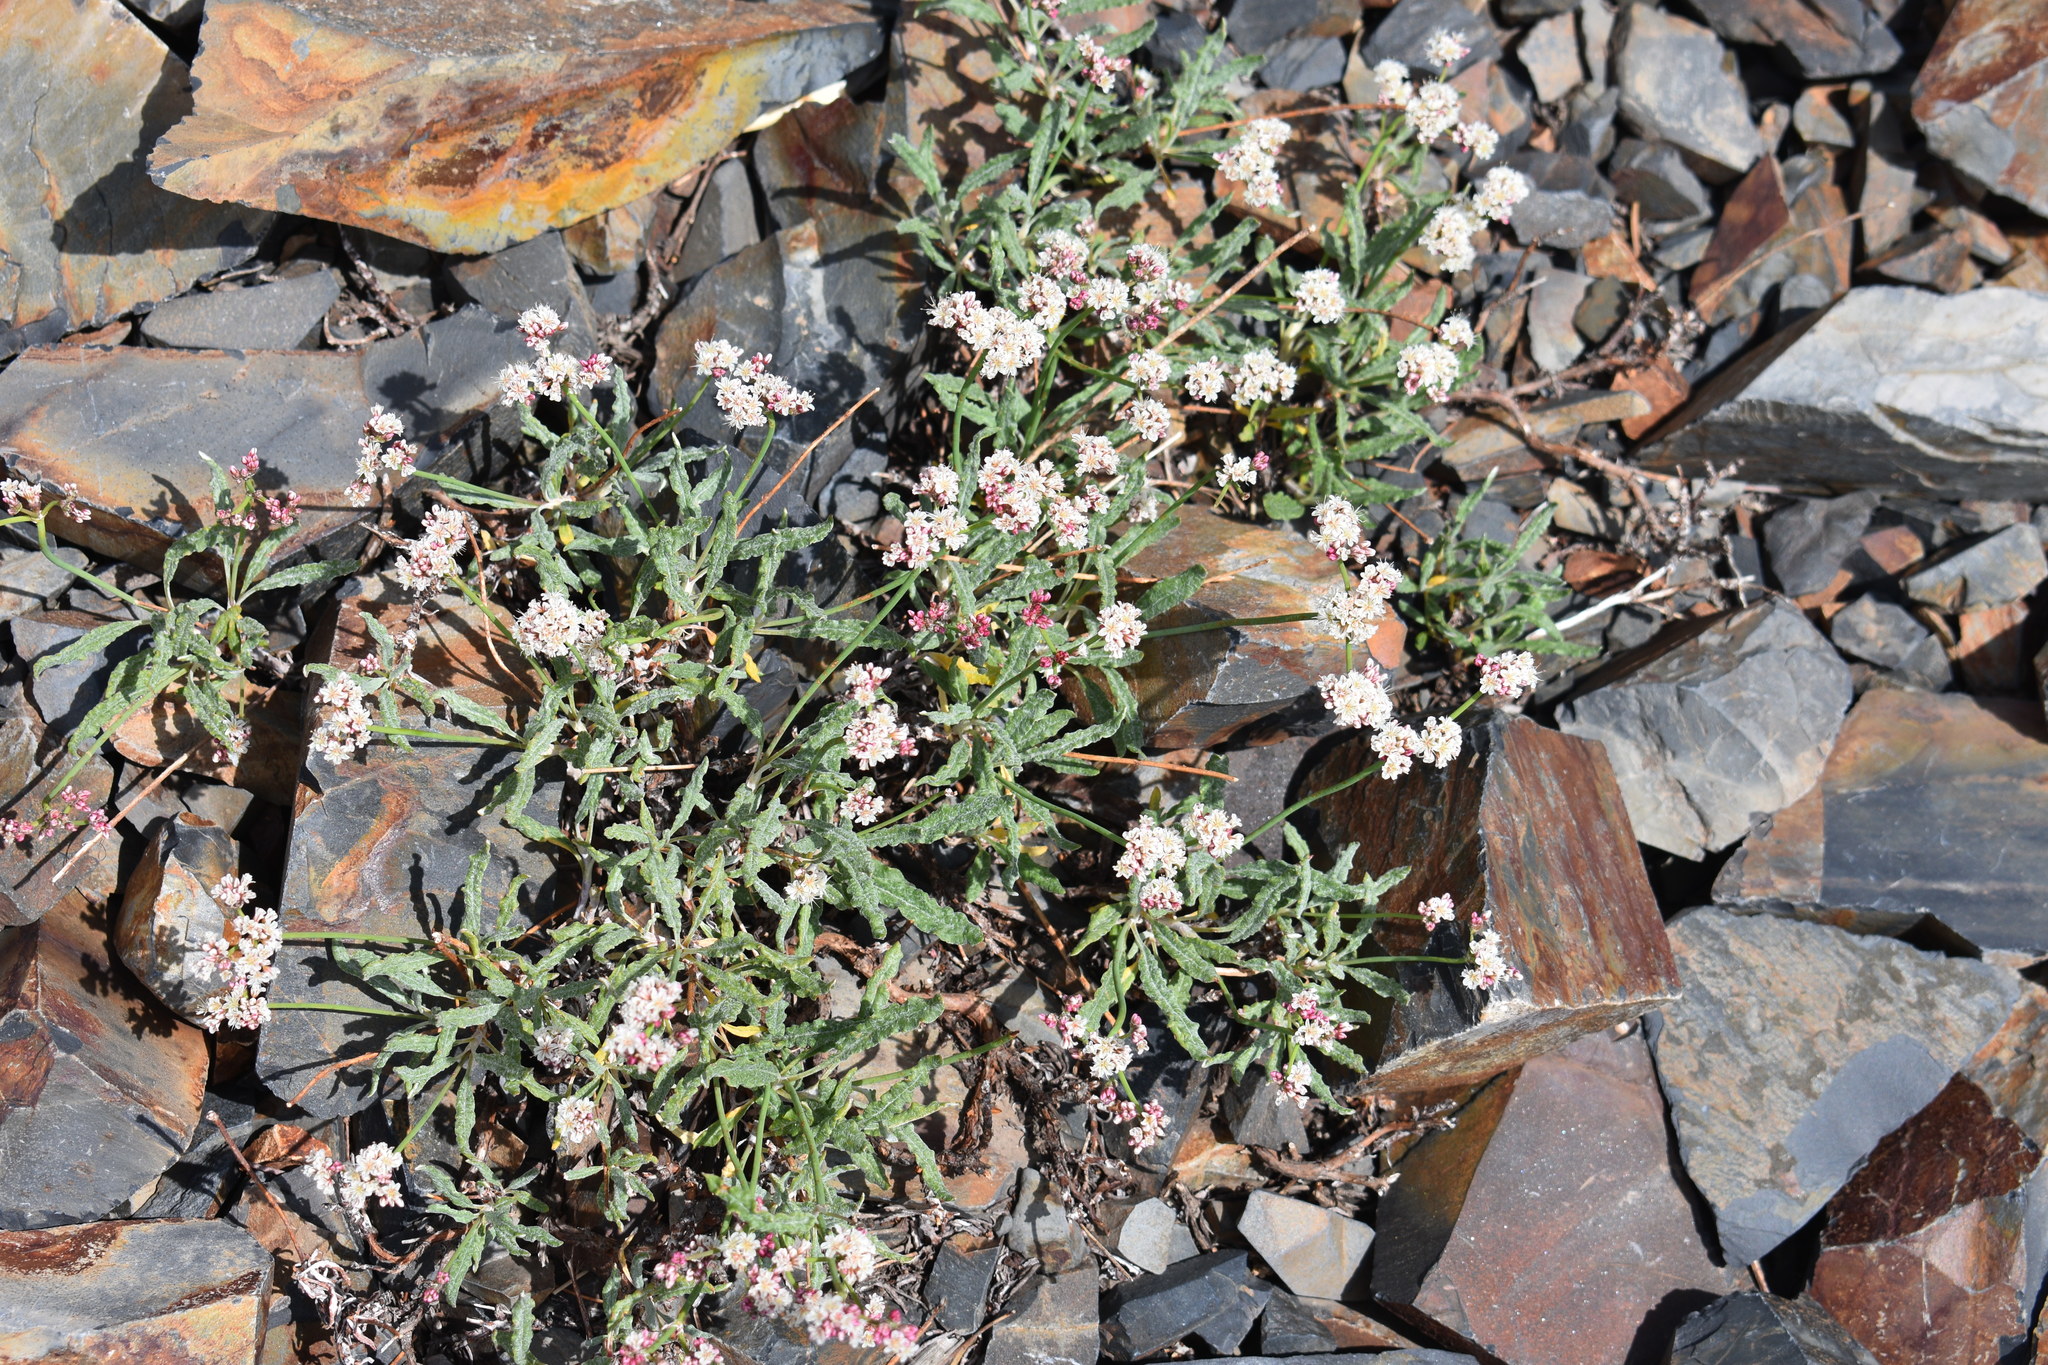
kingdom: Plantae
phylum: Tracheophyta
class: Magnoliopsida
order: Caryophyllales
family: Polygonaceae
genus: Eriogonum
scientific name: Eriogonum coloradense
